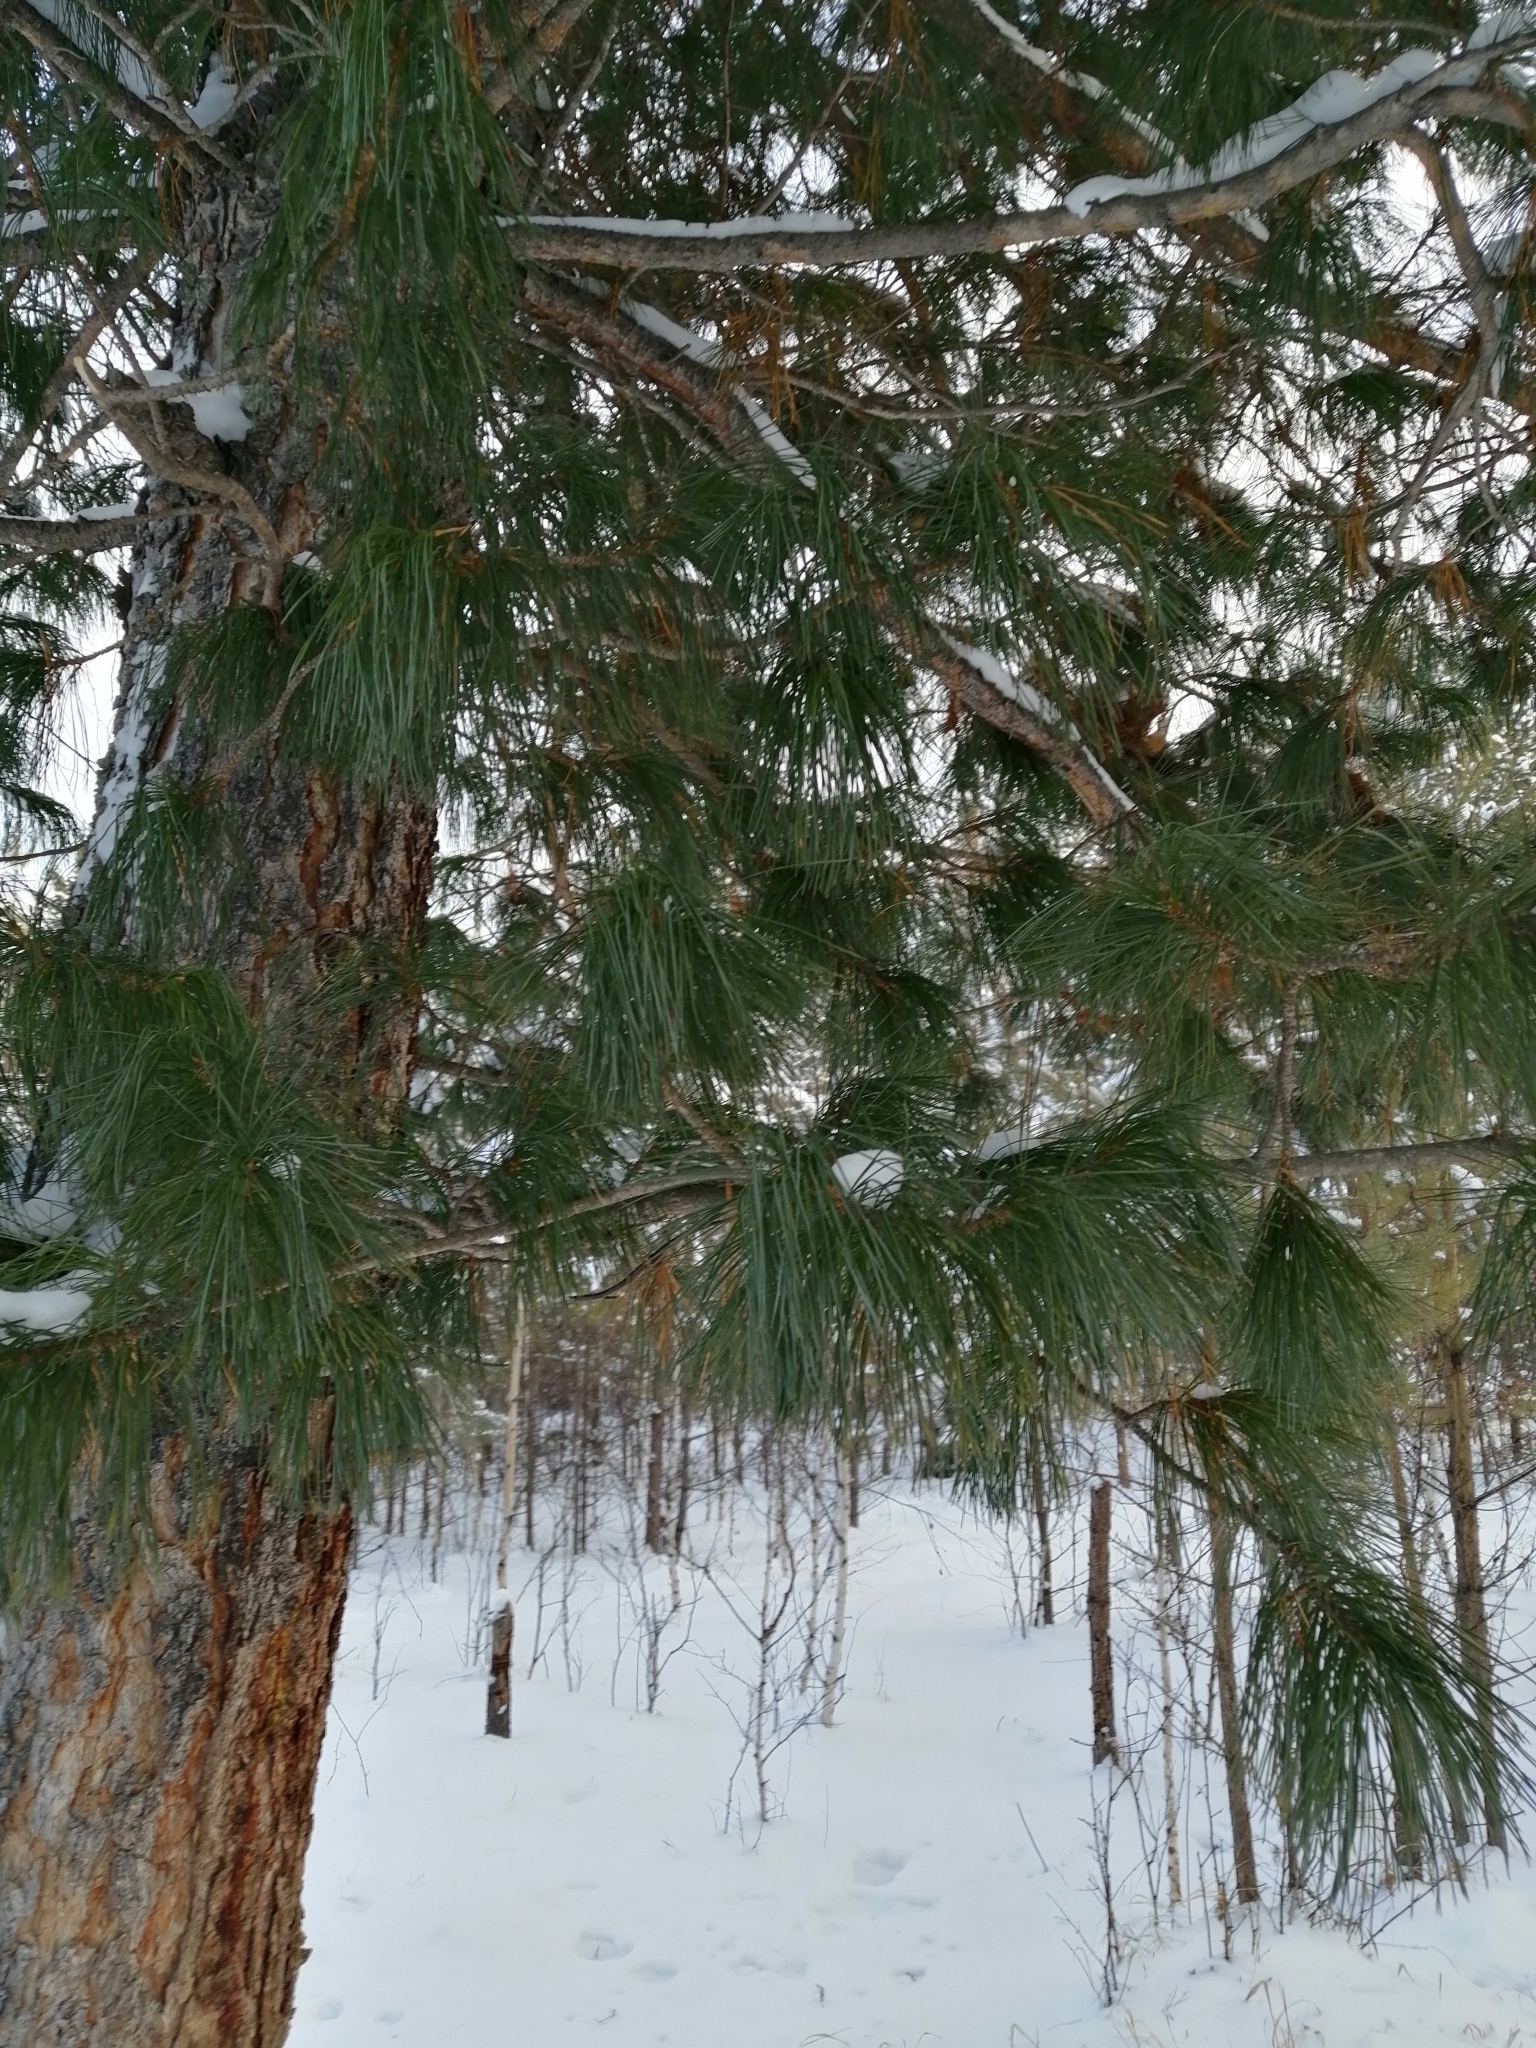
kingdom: Plantae
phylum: Tracheophyta
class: Pinopsida
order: Pinales
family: Pinaceae
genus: Pinus
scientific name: Pinus sibirica
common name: Siberian pine
